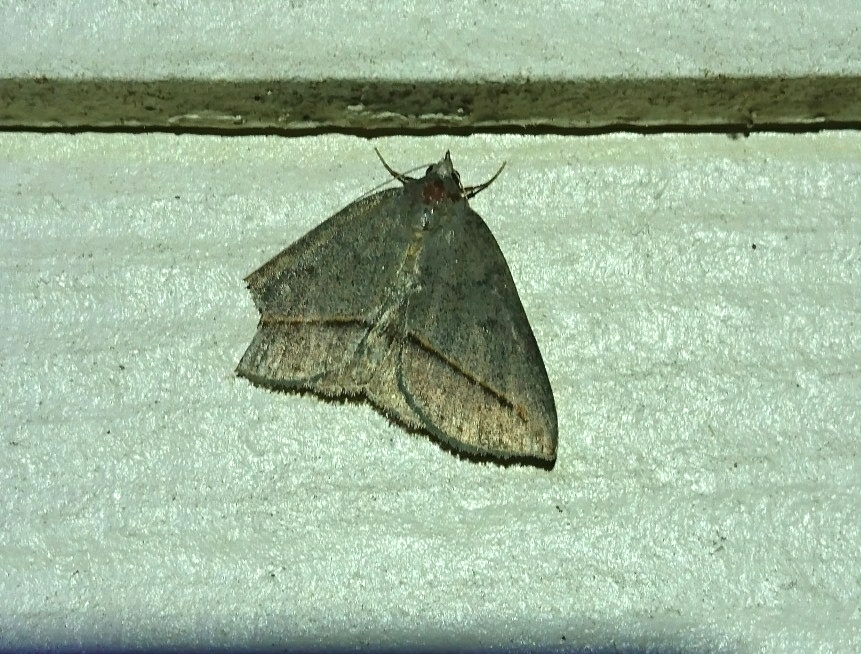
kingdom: Animalia
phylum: Arthropoda
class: Insecta
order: Lepidoptera
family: Erebidae
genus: Argyrostrotis
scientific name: Argyrostrotis flavistriaria
